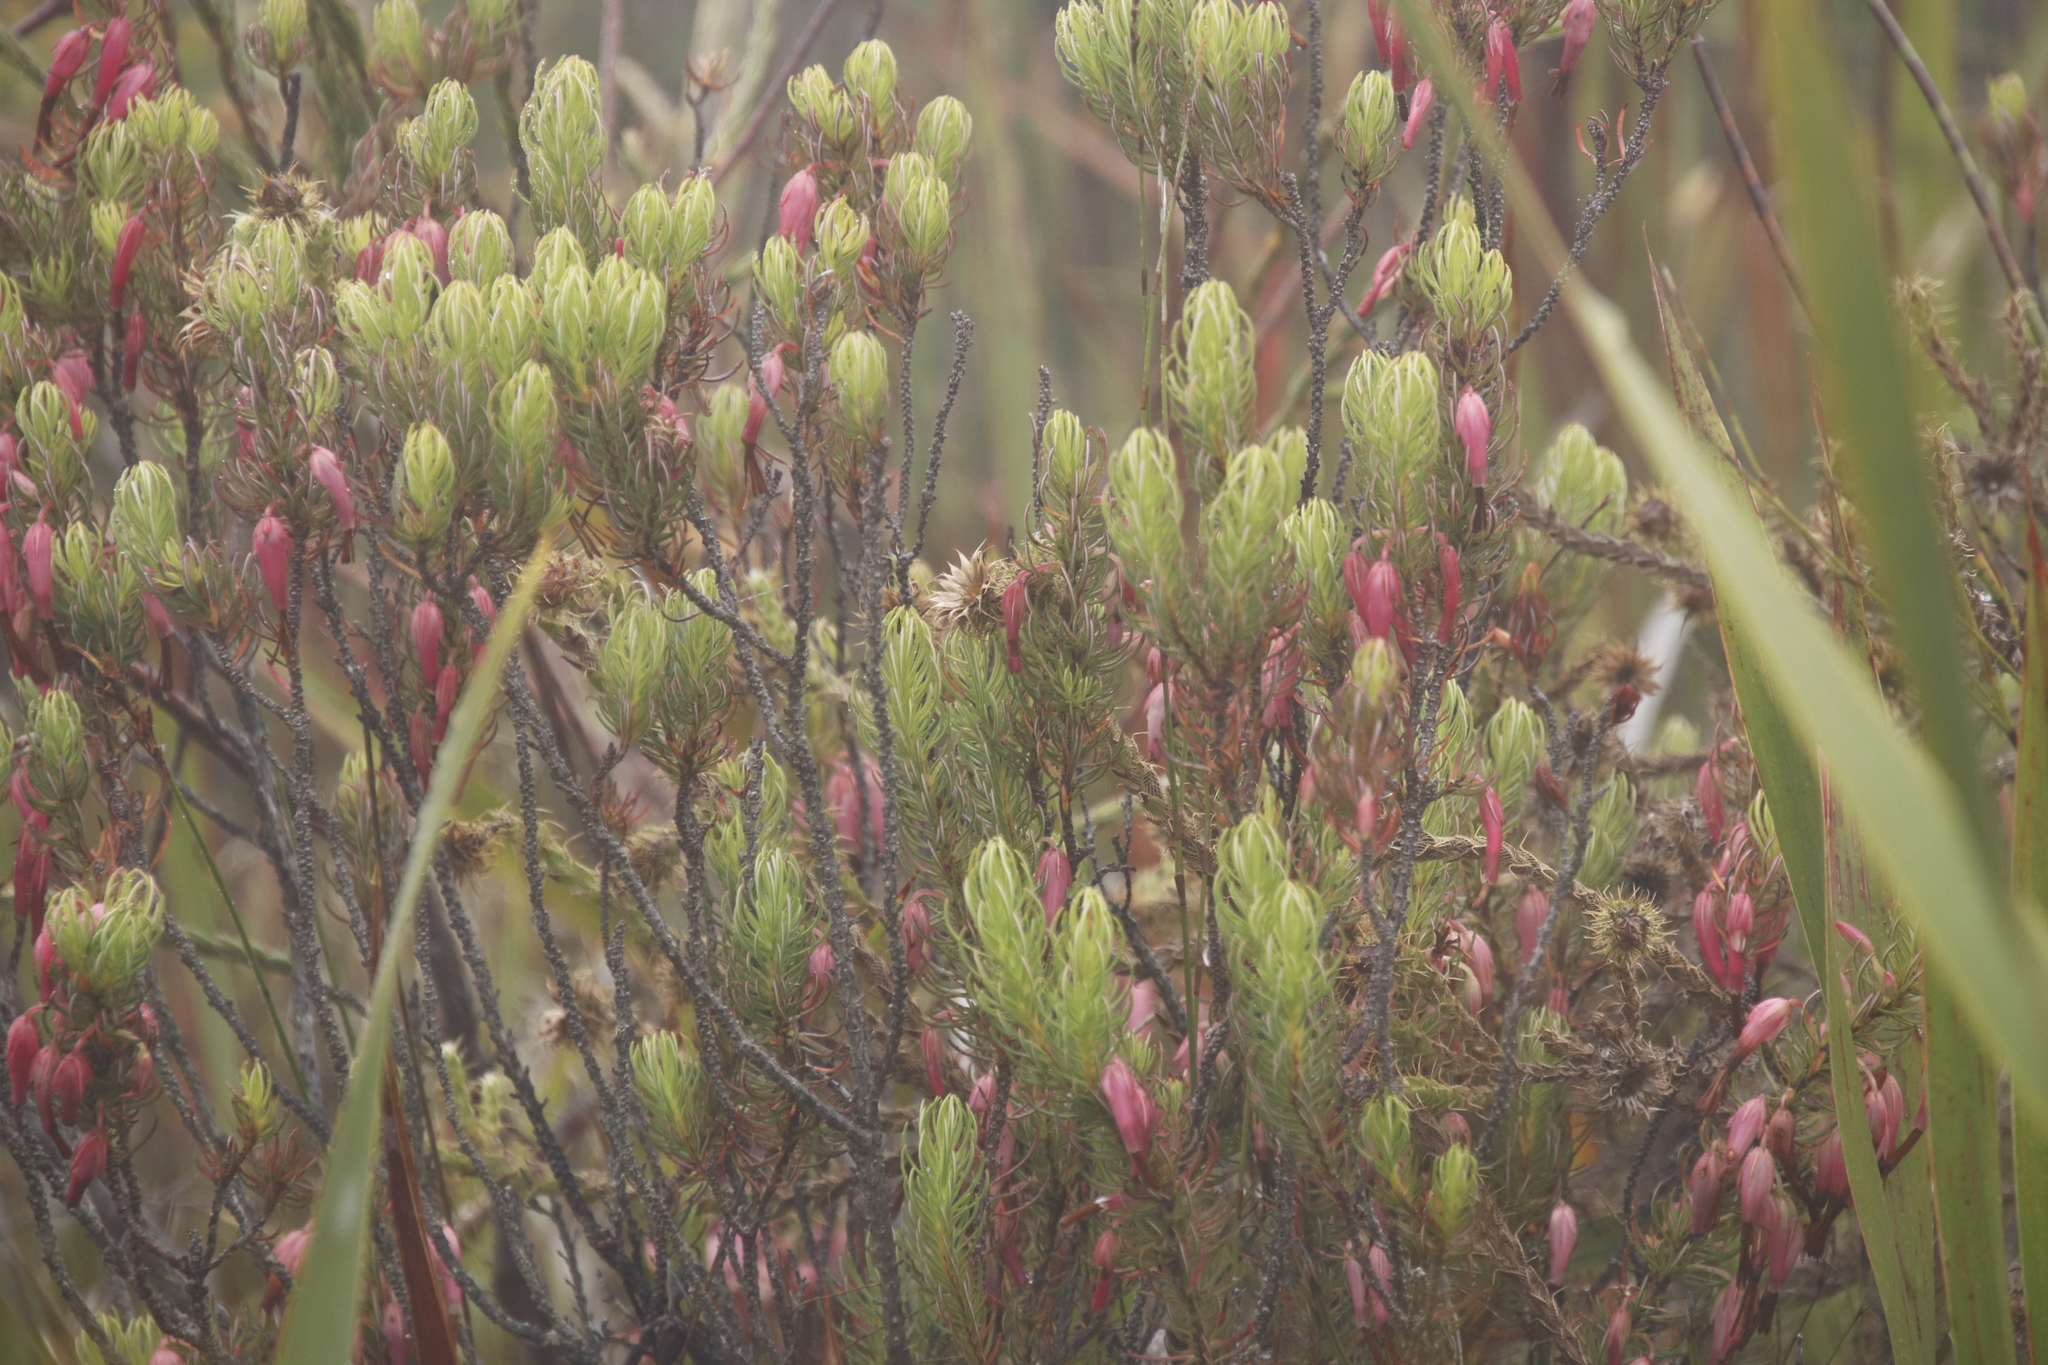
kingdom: Plantae
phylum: Tracheophyta
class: Magnoliopsida
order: Ericales
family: Ericaceae
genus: Erica
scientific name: Erica plukenetii
